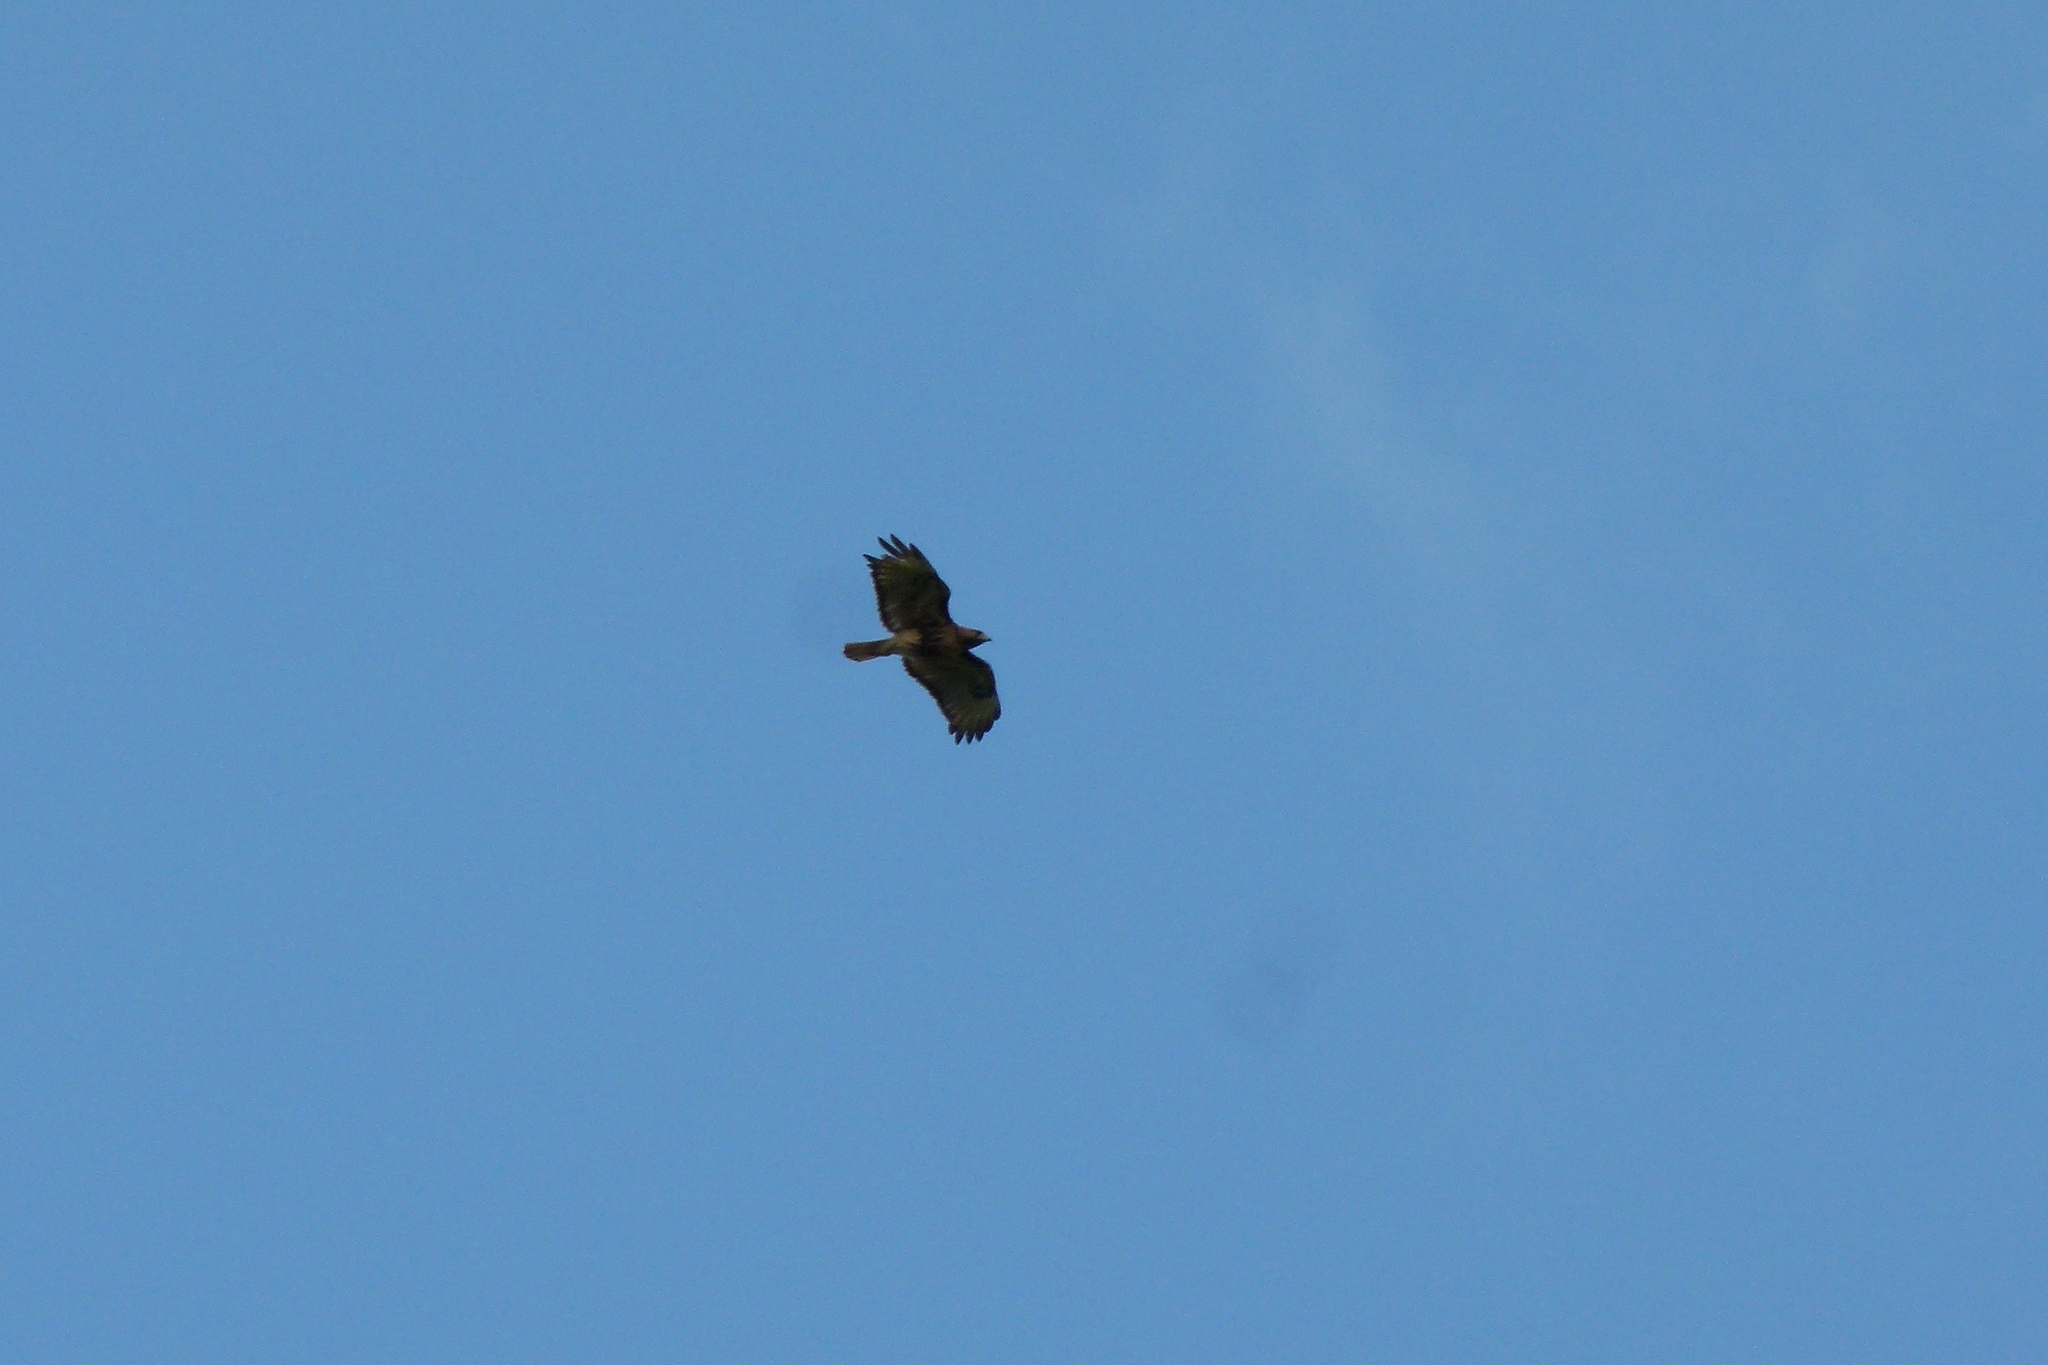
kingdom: Animalia
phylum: Chordata
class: Aves
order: Accipitriformes
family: Accipitridae
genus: Buteo
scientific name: Buteo jamaicensis
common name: Red-tailed hawk
